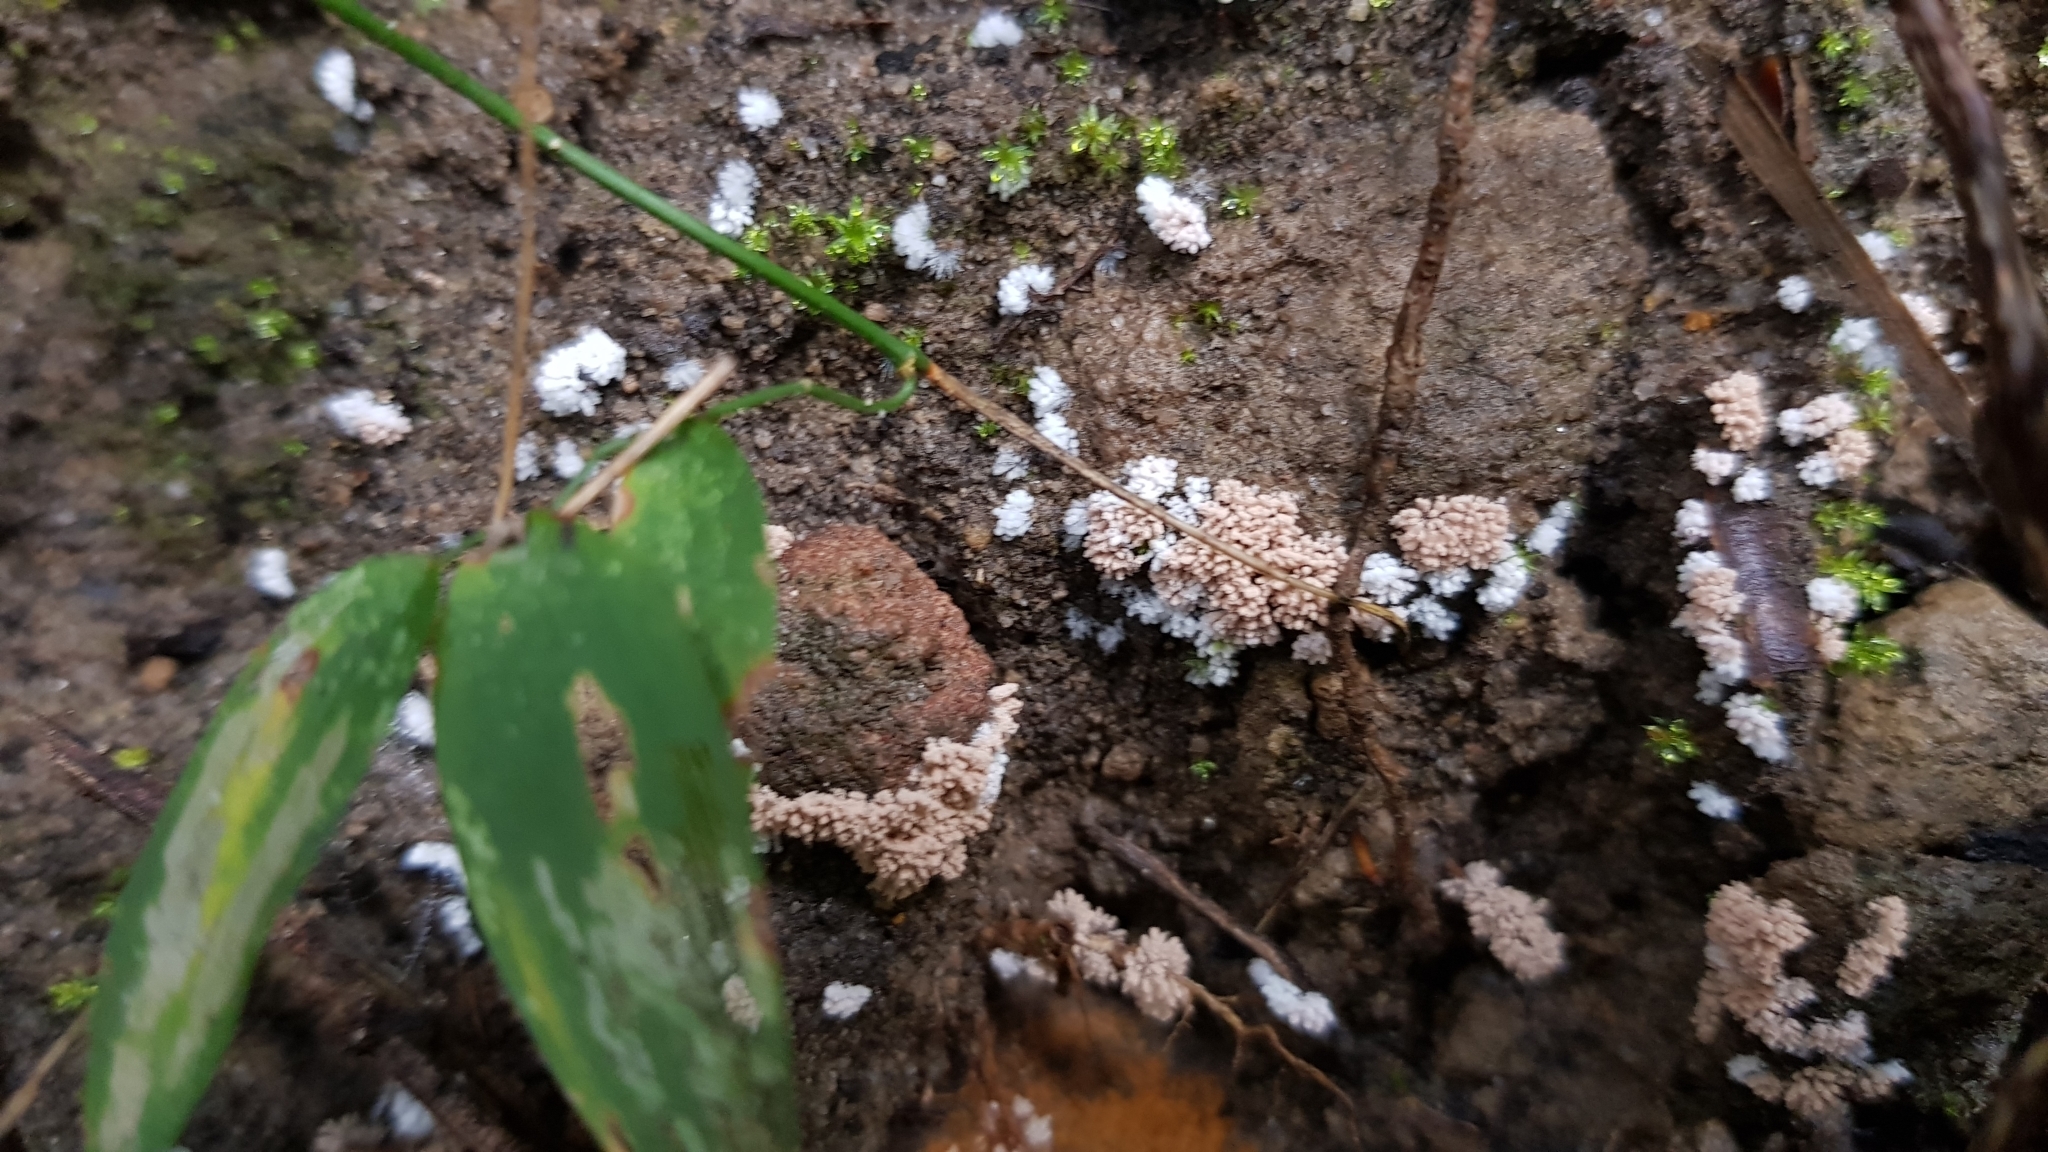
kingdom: Fungi
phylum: Ascomycota
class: Pezizomycetes
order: Pezizales
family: Pezizaceae
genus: Chromelosporiopsis
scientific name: Chromelosporiopsis carnea
